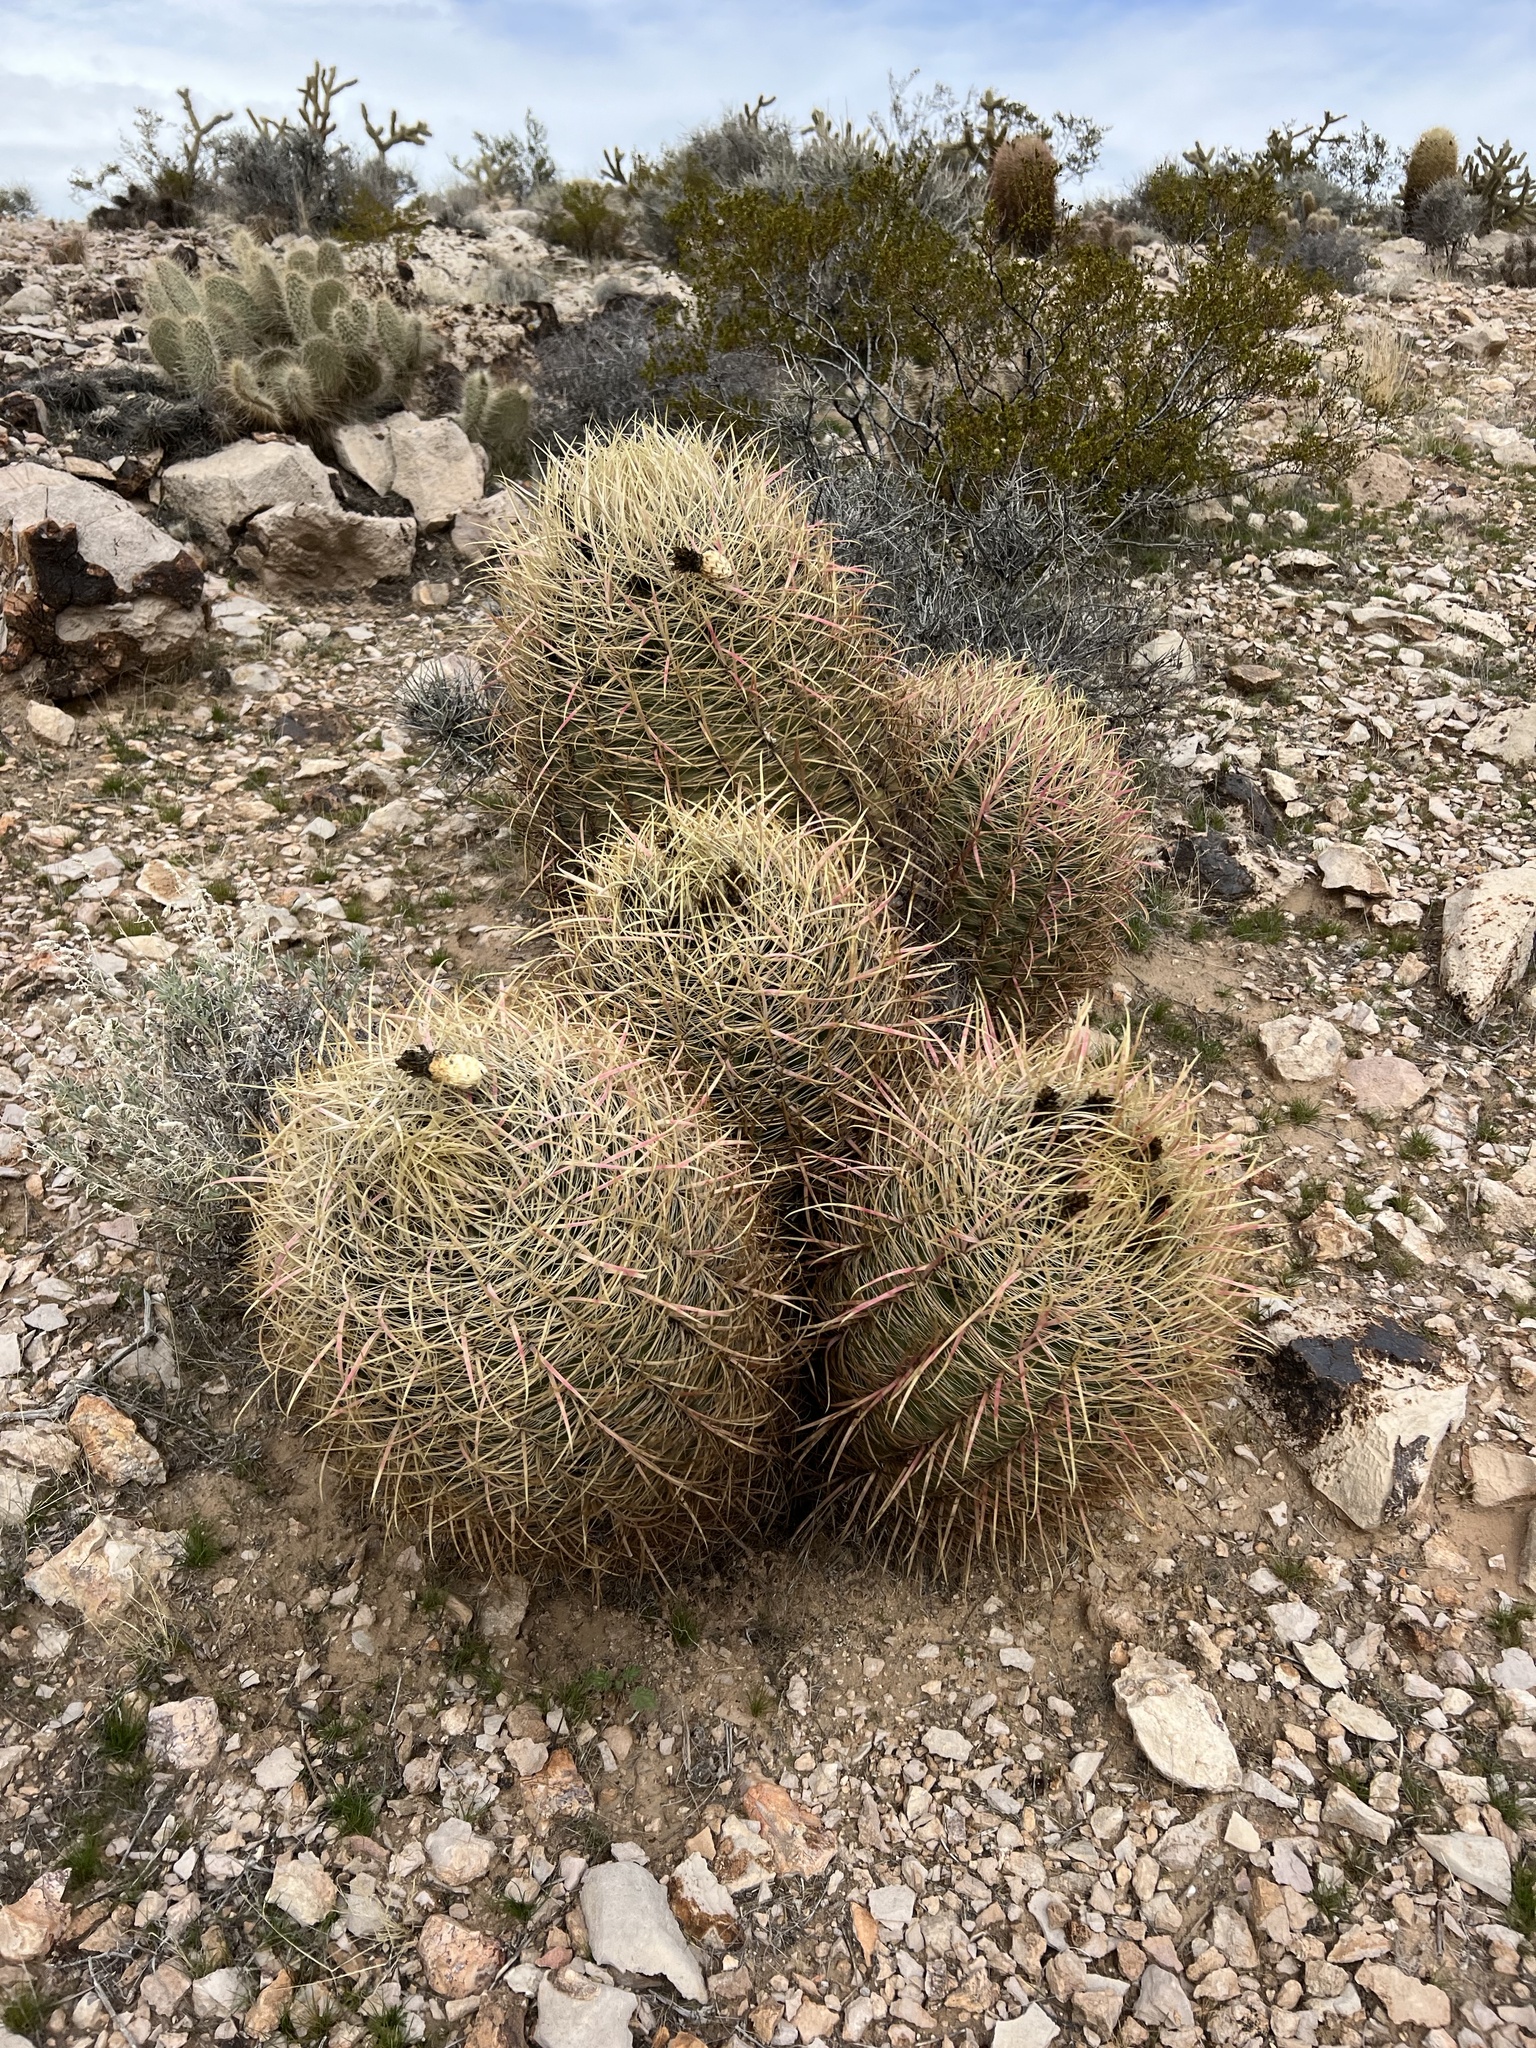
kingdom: Plantae
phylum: Tracheophyta
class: Magnoliopsida
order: Caryophyllales
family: Cactaceae
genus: Ferocactus
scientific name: Ferocactus cylindraceus
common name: California barrel cactus
